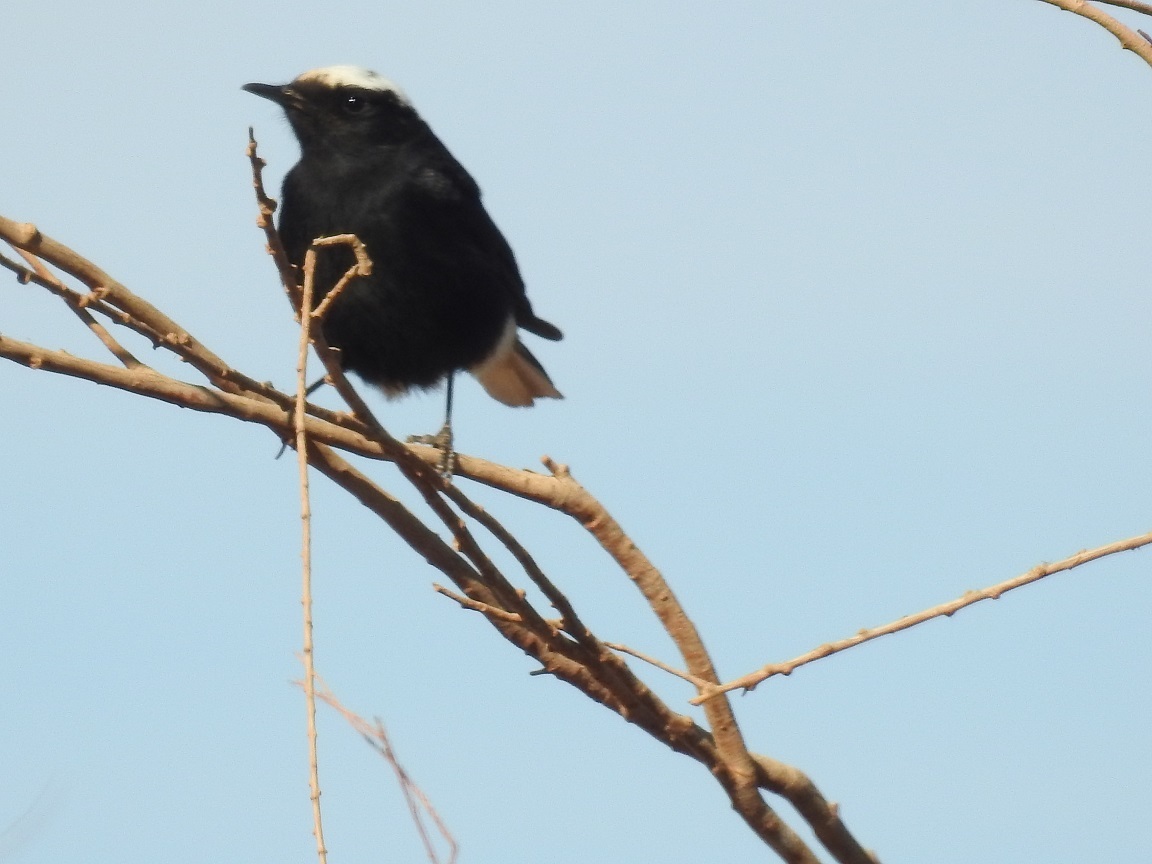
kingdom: Animalia
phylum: Chordata
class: Aves
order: Passeriformes
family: Muscicapidae
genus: Oenanthe
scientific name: Oenanthe leucopyga
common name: White-crowned wheatear
